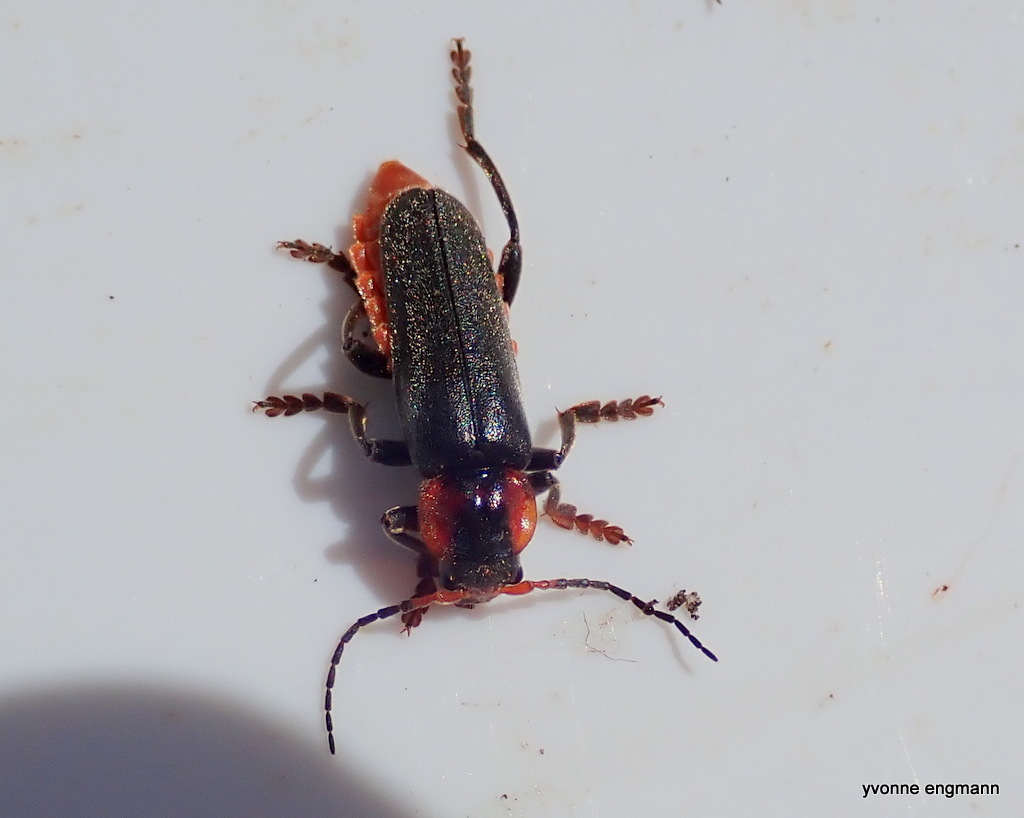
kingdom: Animalia
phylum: Arthropoda
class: Insecta
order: Coleoptera
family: Cantharidae
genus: Cantharis
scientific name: Cantharis fusca
